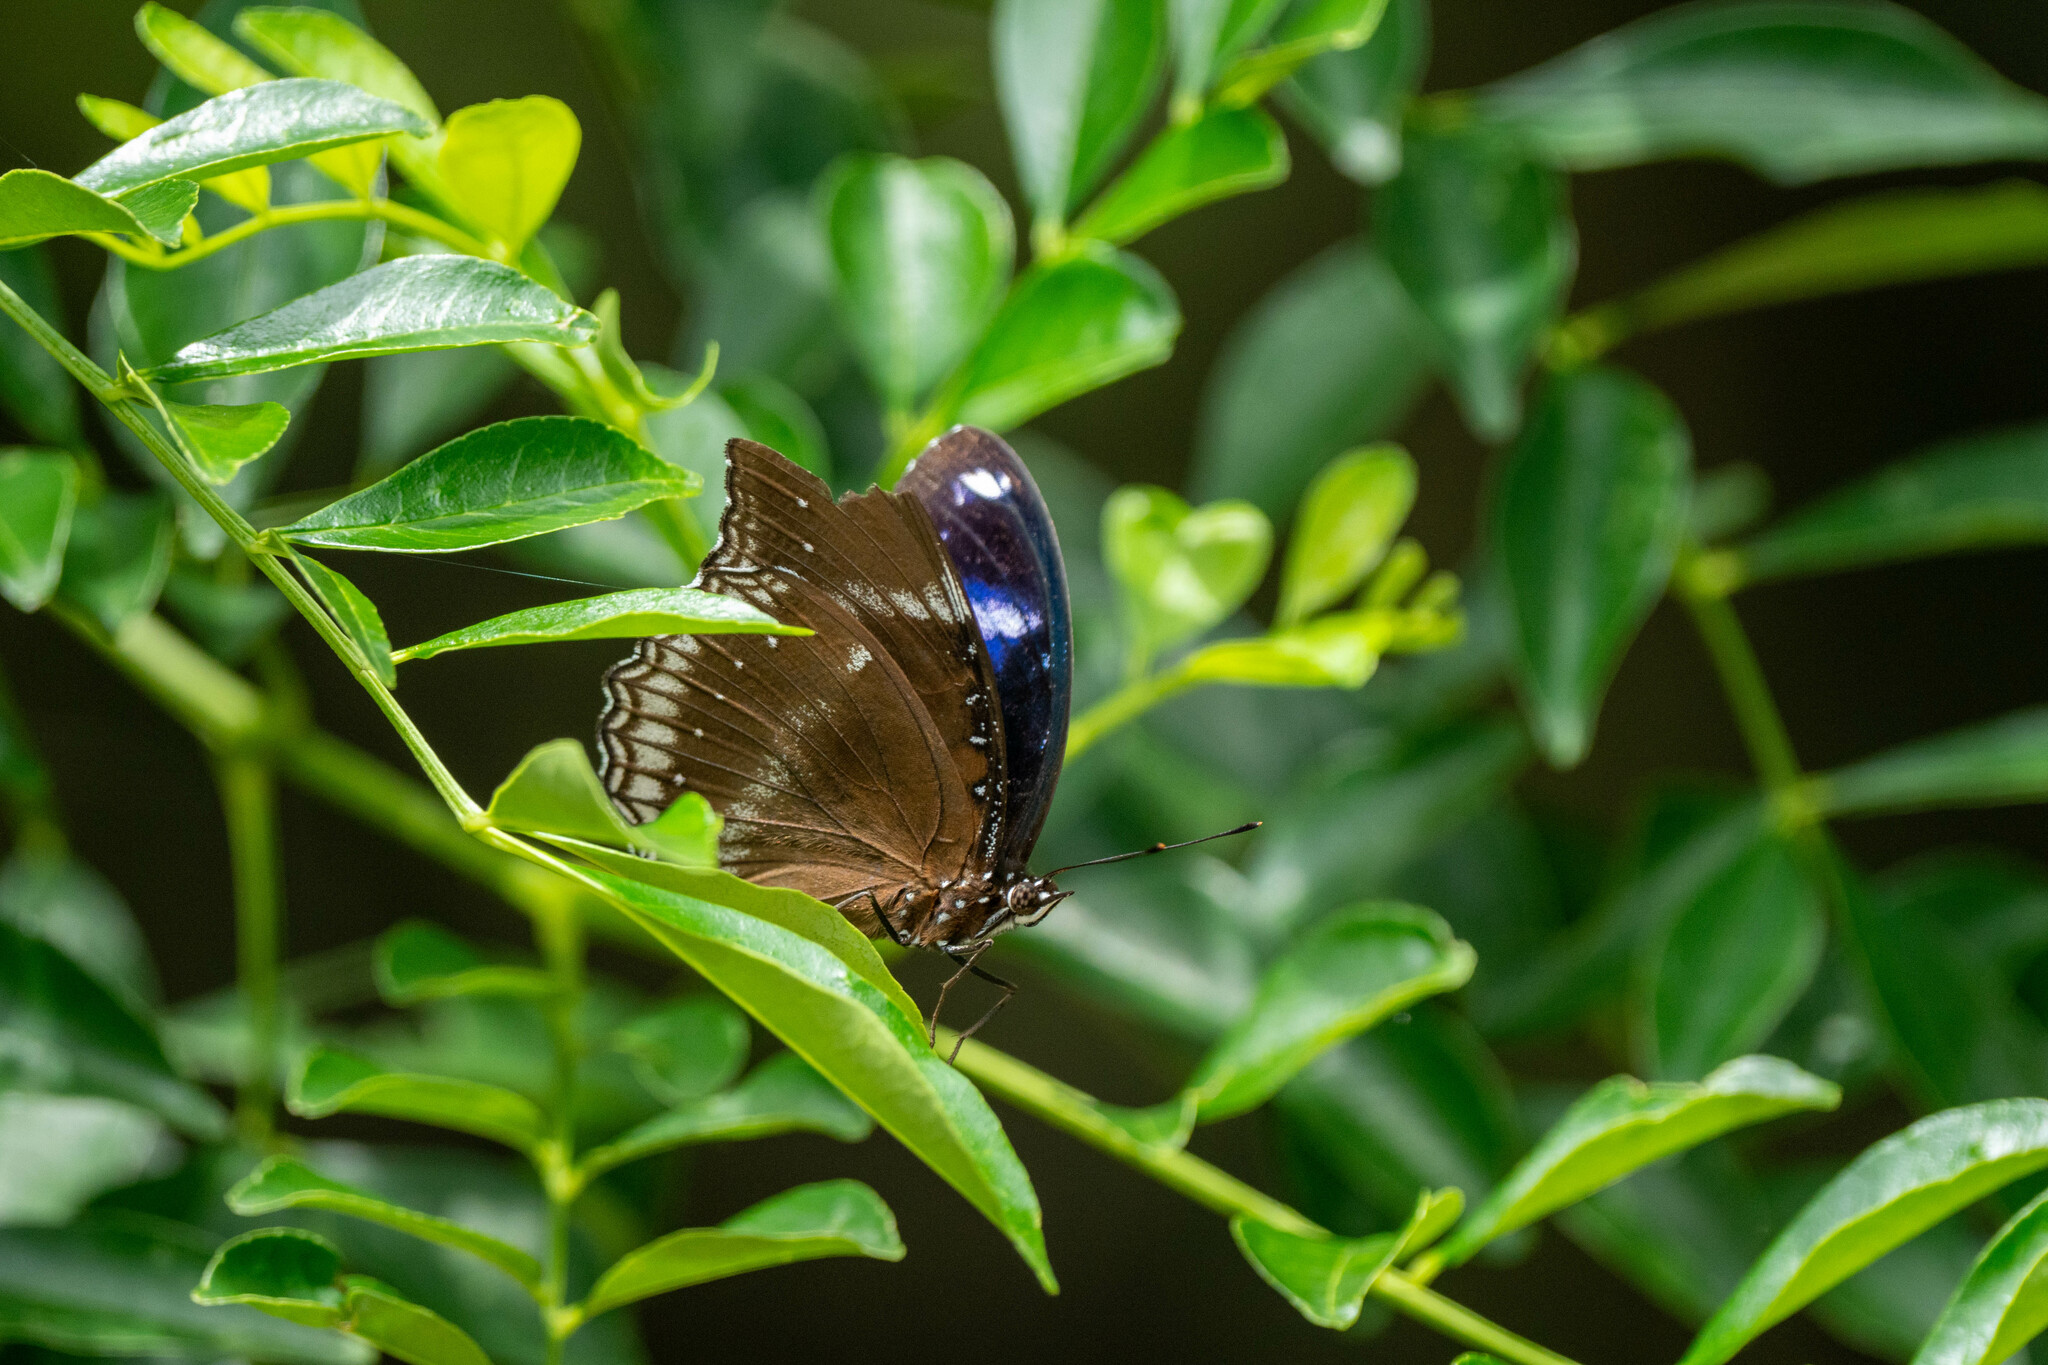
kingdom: Animalia
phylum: Arthropoda
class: Insecta
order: Lepidoptera
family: Nymphalidae
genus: Hypolimnas
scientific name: Hypolimnas bolina
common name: Great eggfly
